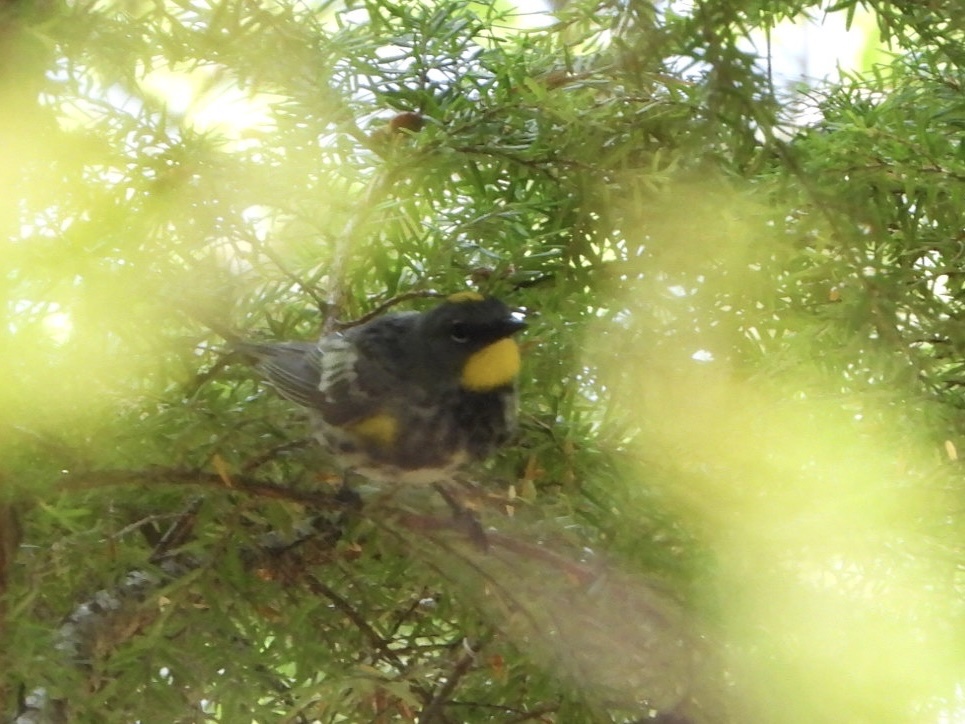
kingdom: Animalia
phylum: Chordata
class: Aves
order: Passeriformes
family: Parulidae
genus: Setophaga
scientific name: Setophaga auduboni
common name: Audubon's warbler
